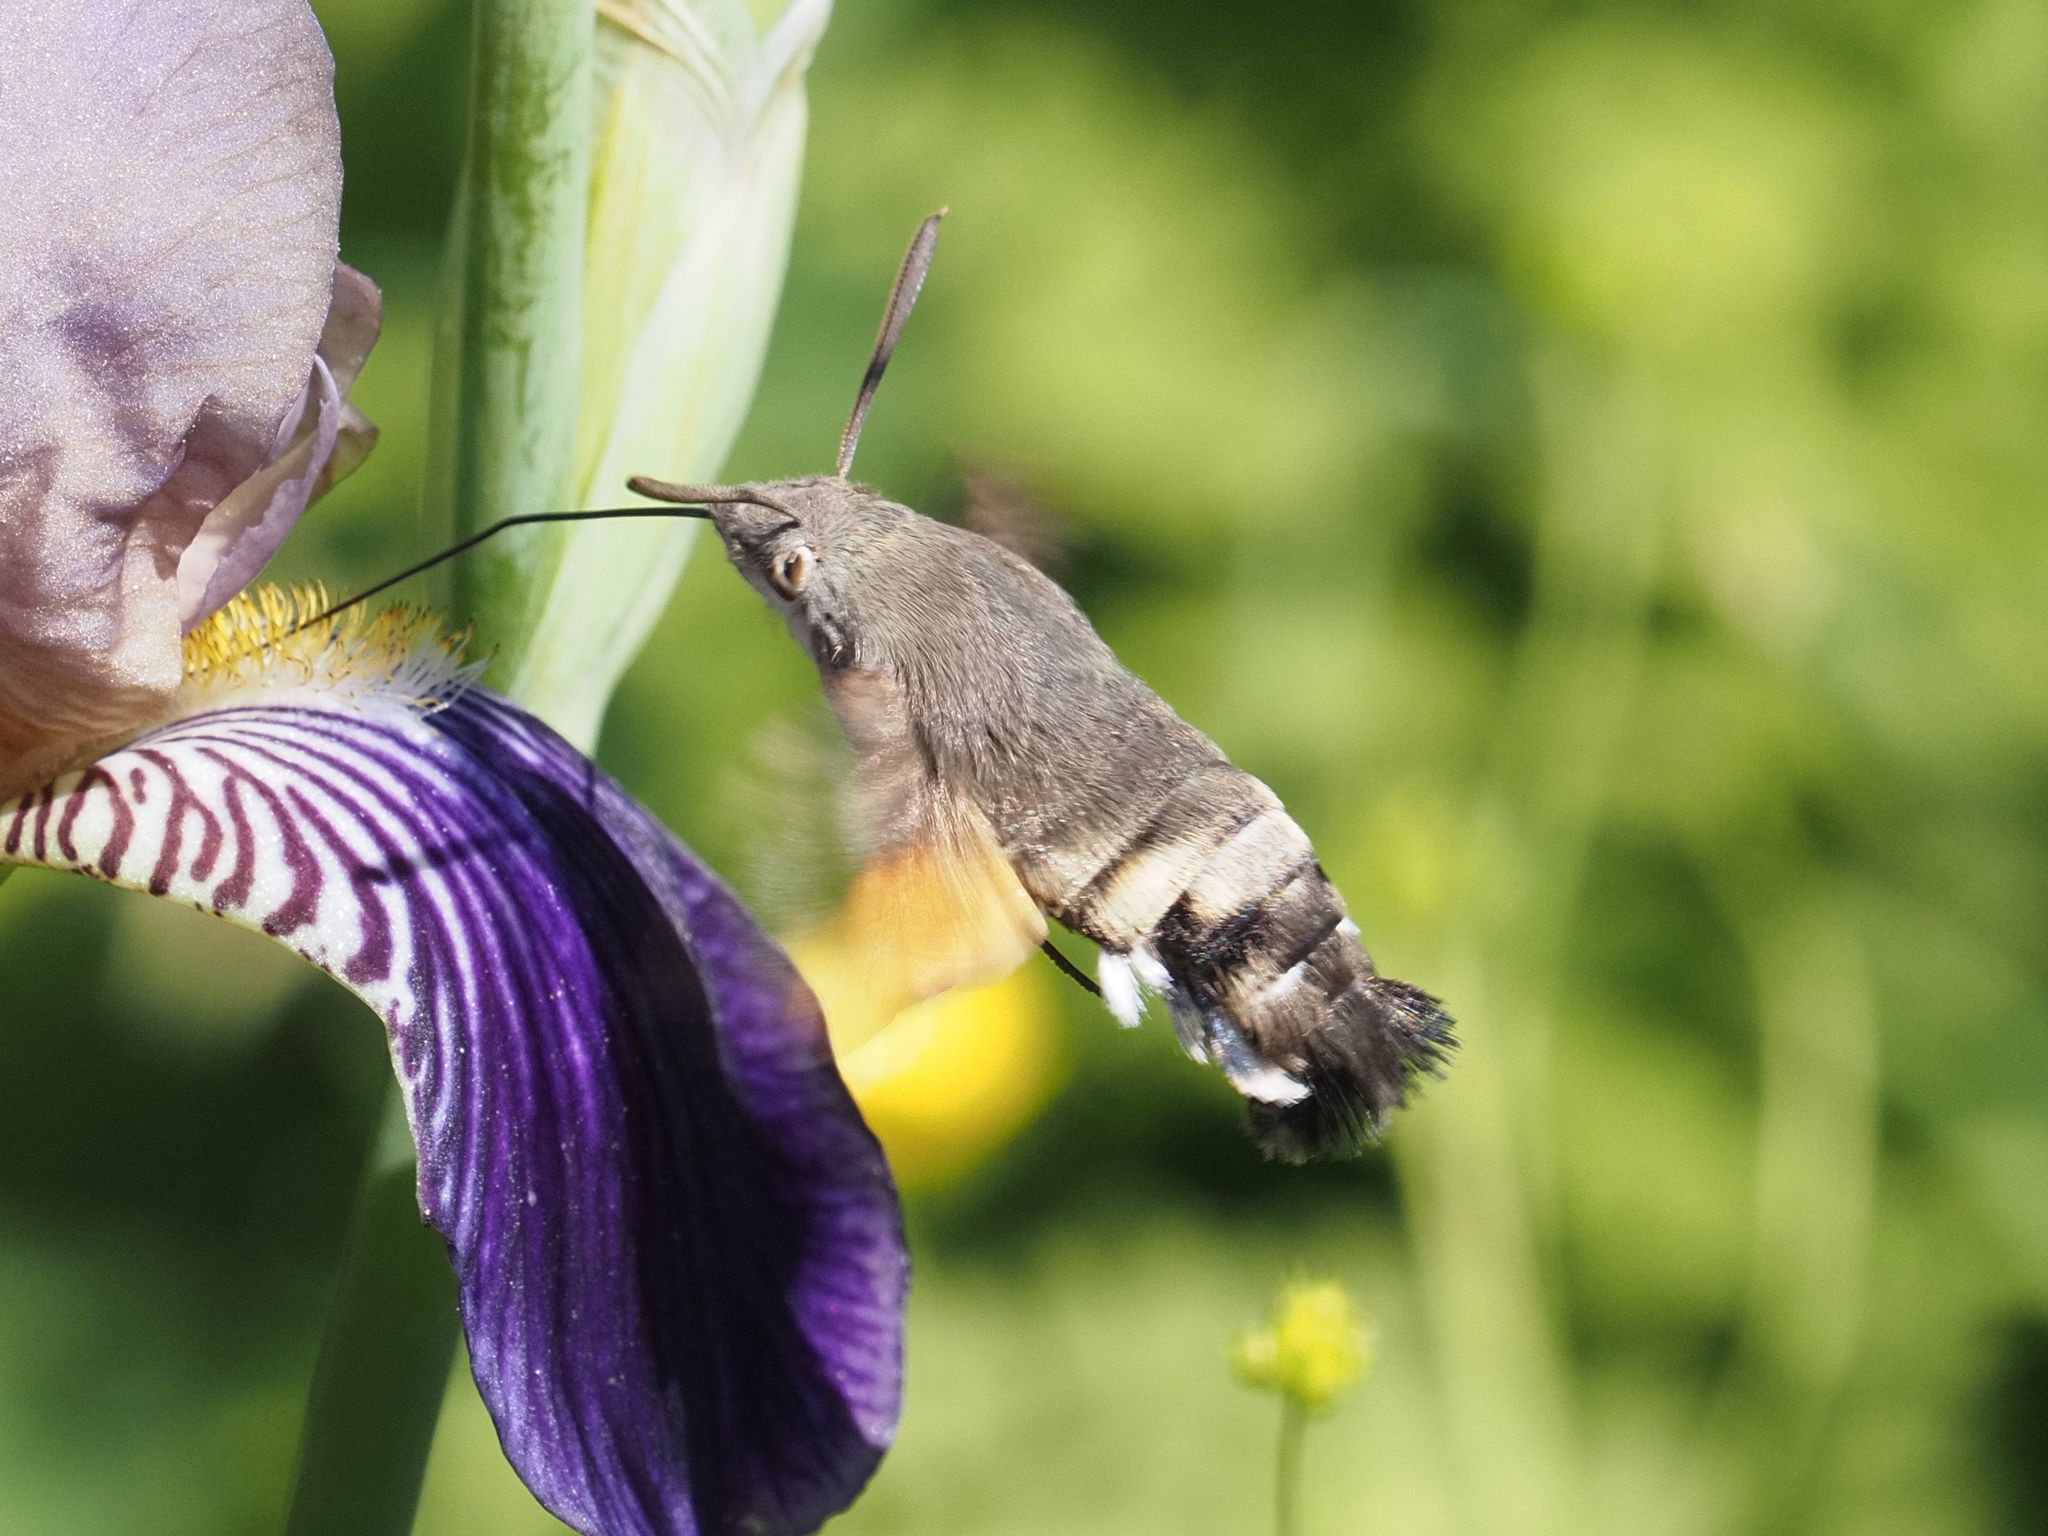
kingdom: Animalia
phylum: Arthropoda
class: Insecta
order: Lepidoptera
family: Sphingidae
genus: Macroglossum
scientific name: Macroglossum stellatarum
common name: Humming-bird hawk-moth
